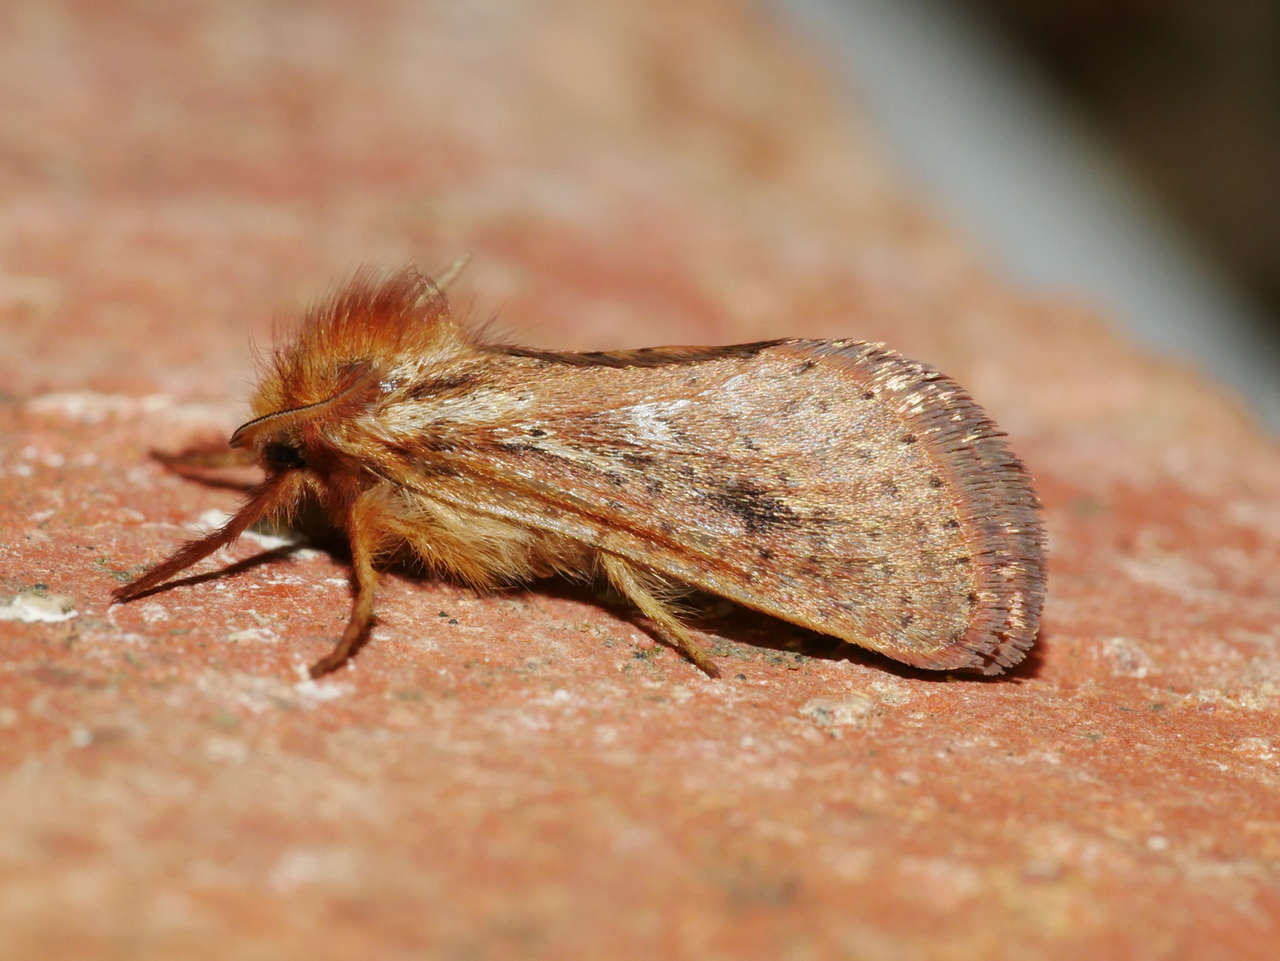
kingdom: Animalia
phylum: Arthropoda
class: Insecta
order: Lepidoptera
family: Hepialidae
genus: Fraus
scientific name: Fraus simulans
